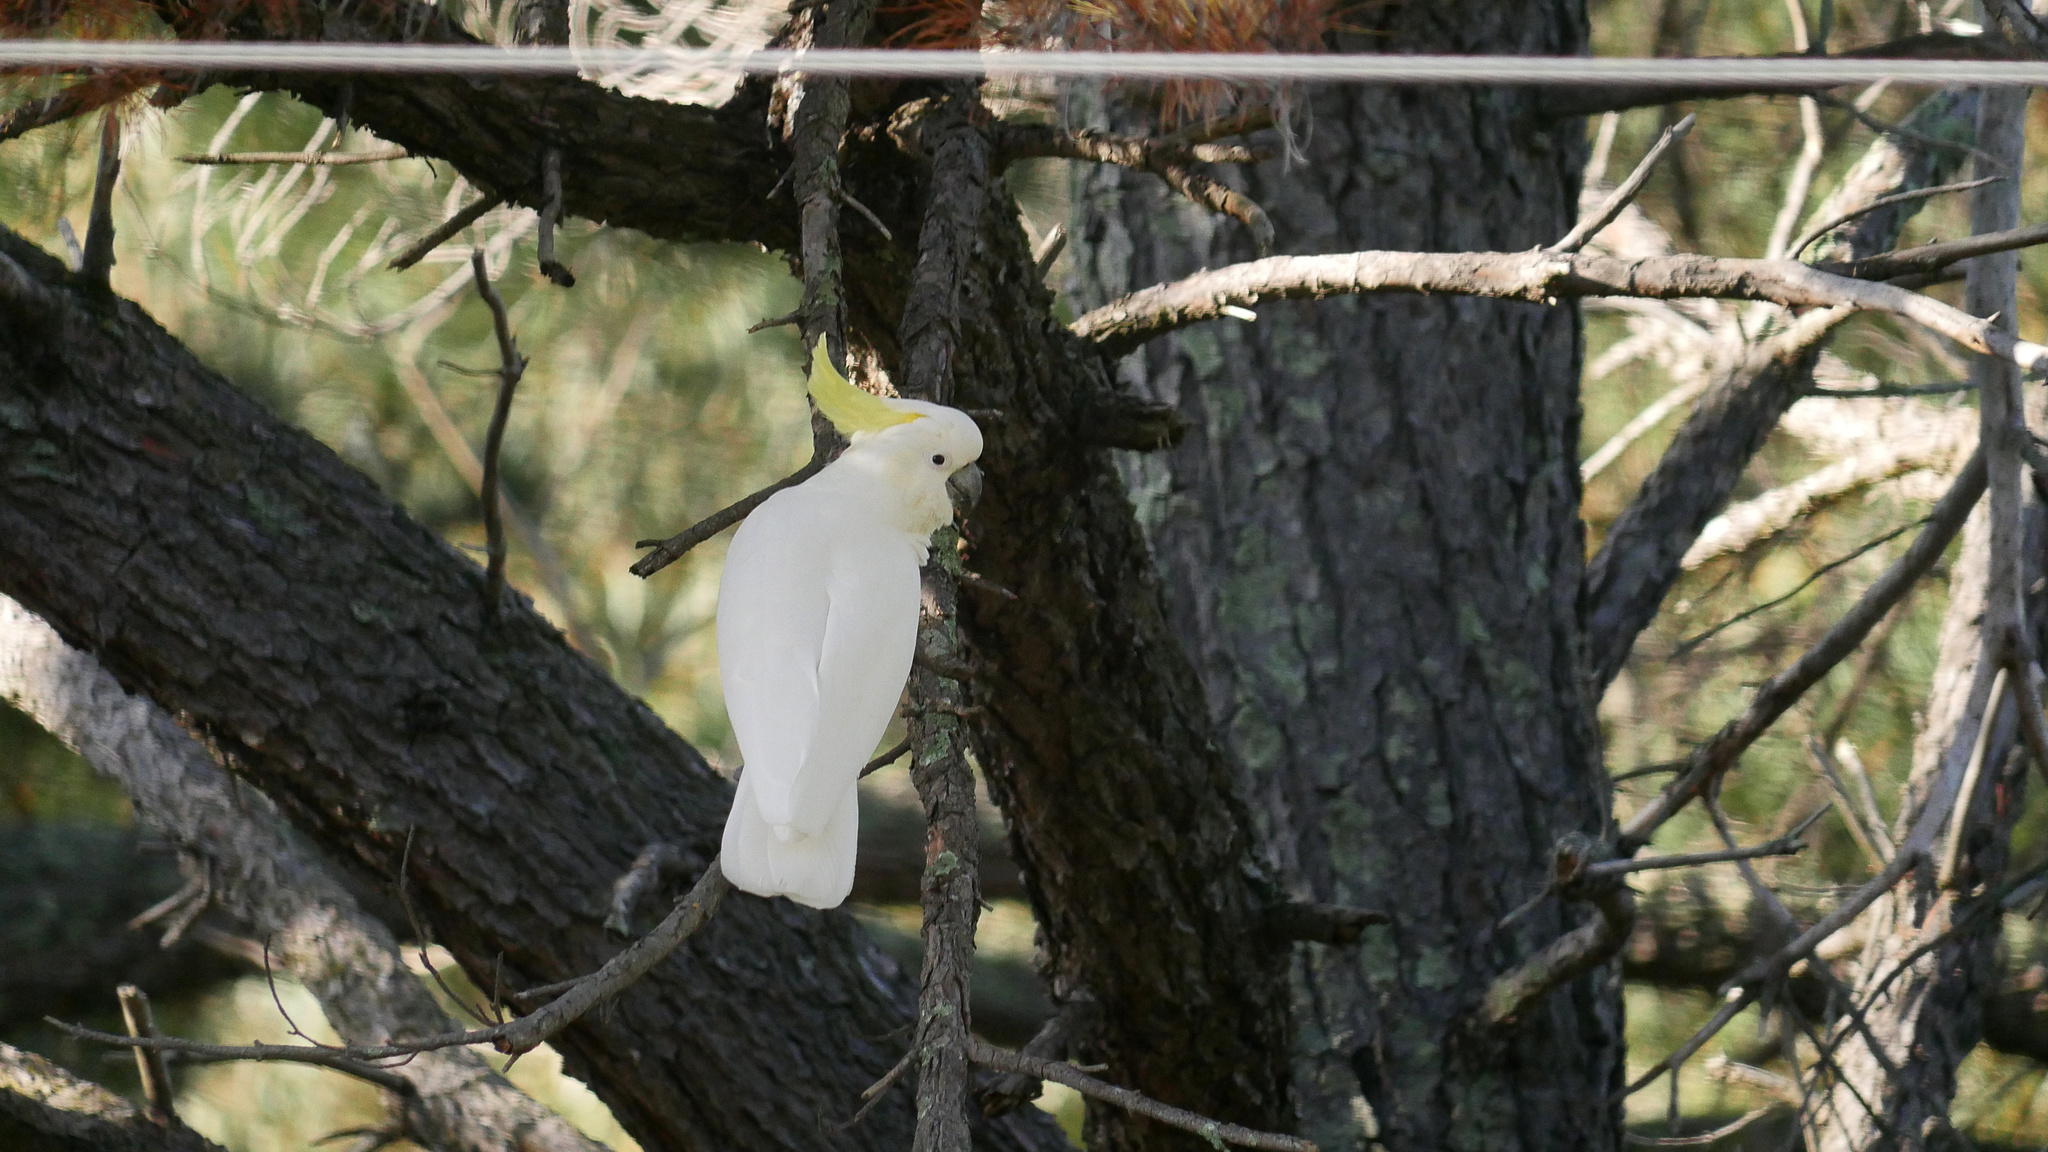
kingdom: Animalia
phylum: Chordata
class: Aves
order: Psittaciformes
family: Psittacidae
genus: Cacatua
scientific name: Cacatua galerita
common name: Sulphur-crested cockatoo
